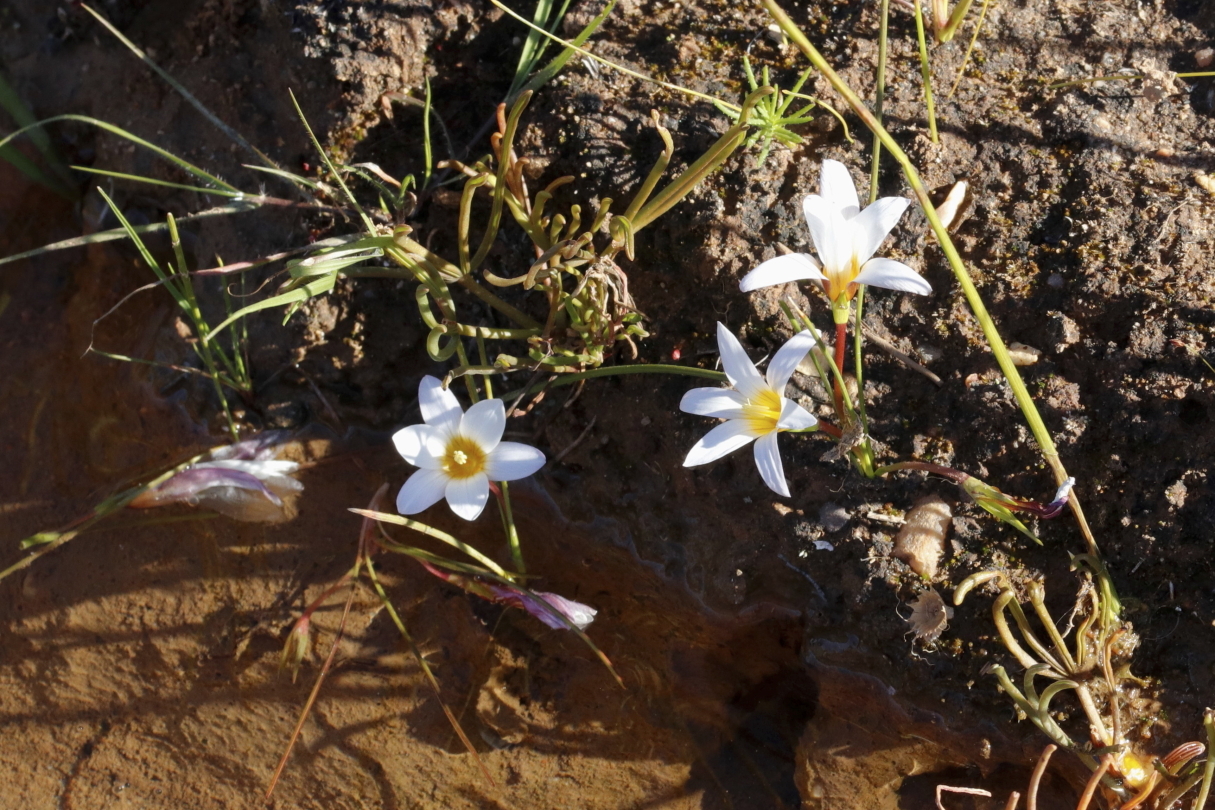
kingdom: Plantae
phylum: Tracheophyta
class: Liliopsida
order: Asparagales
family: Iridaceae
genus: Romulea
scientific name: Romulea tabularis
